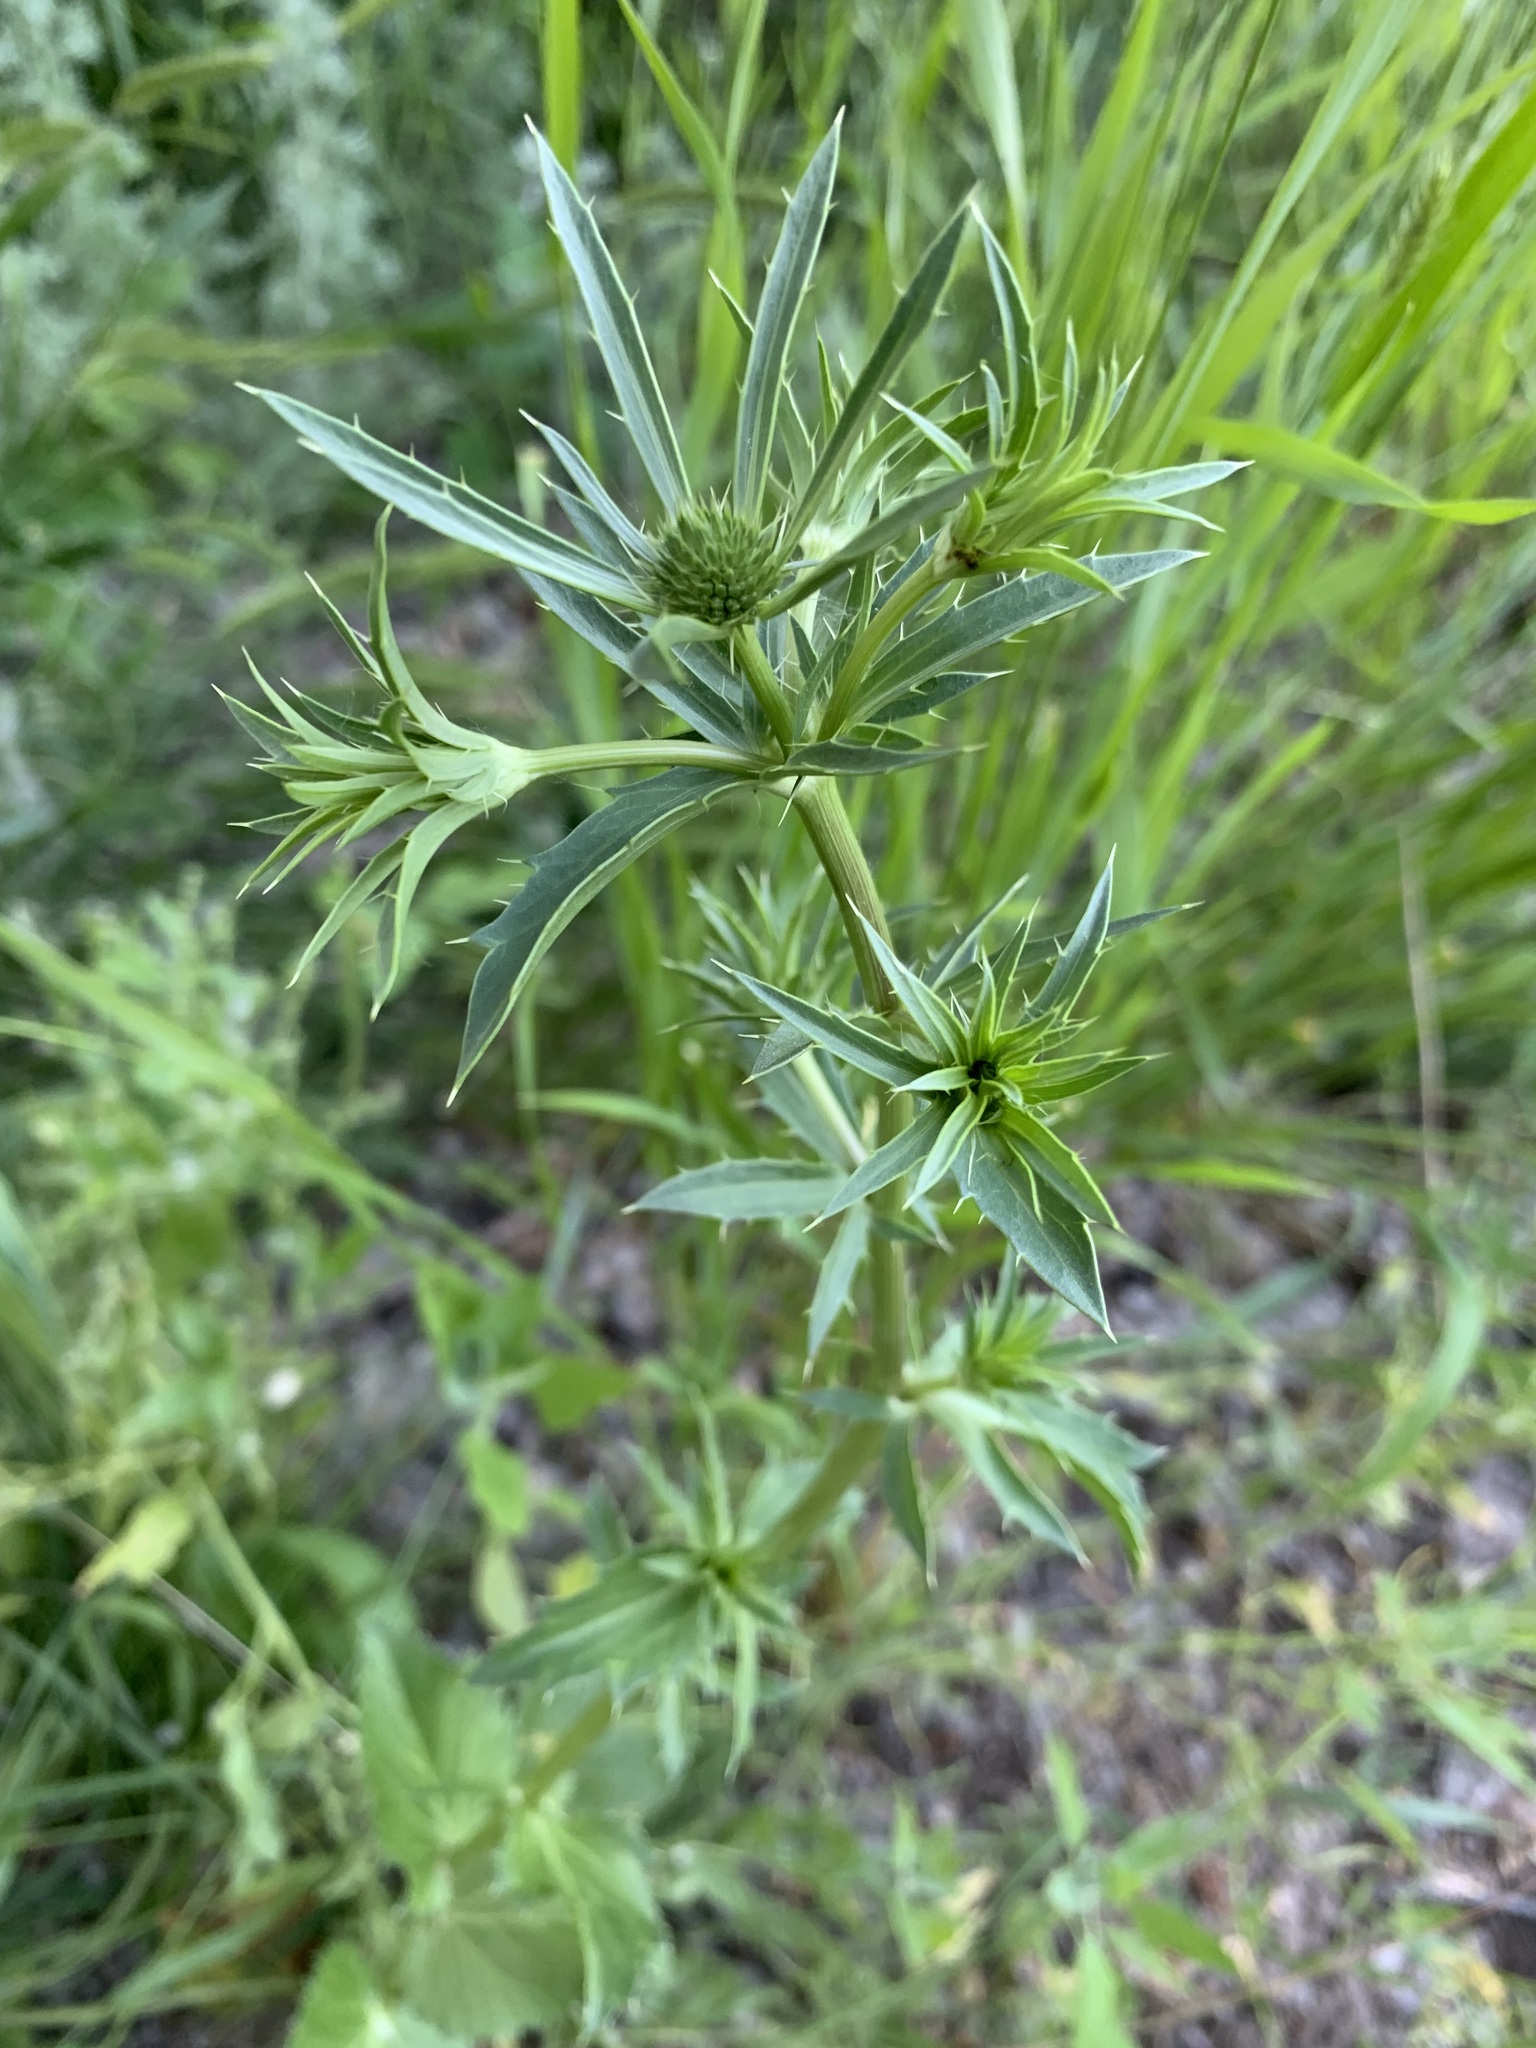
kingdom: Plantae
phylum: Tracheophyta
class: Magnoliopsida
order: Apiales
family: Apiaceae
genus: Eryngium
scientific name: Eryngium planum
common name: Blue eryngo
